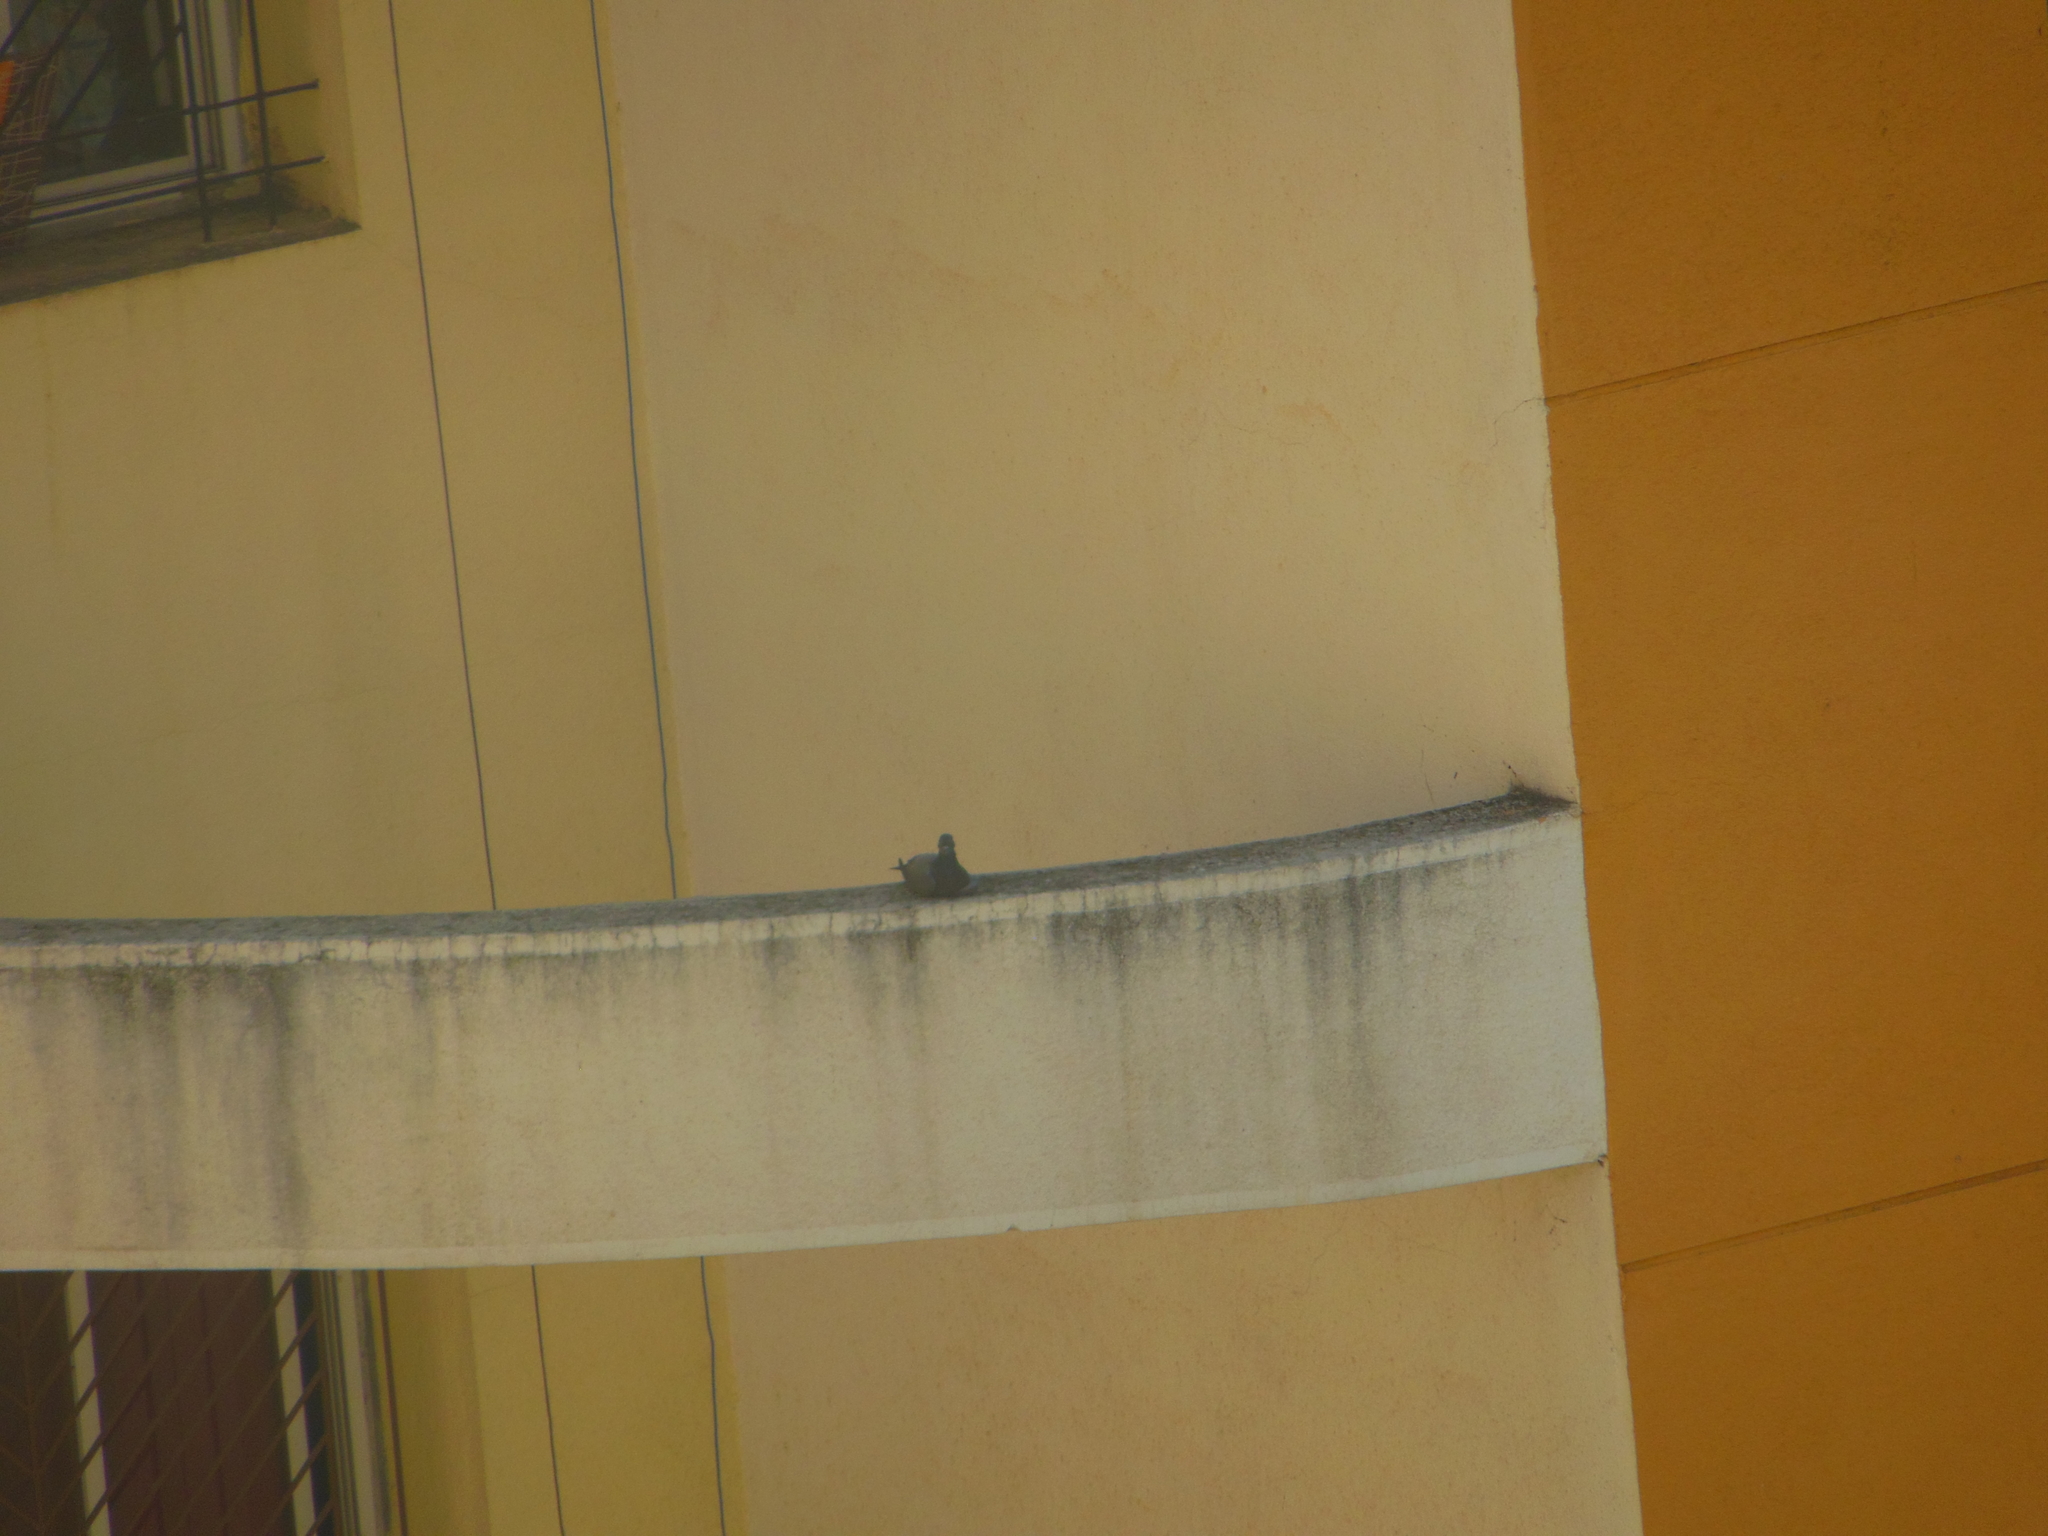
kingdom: Animalia
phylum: Chordata
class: Aves
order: Columbiformes
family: Columbidae
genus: Columba
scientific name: Columba livia
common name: Rock pigeon
